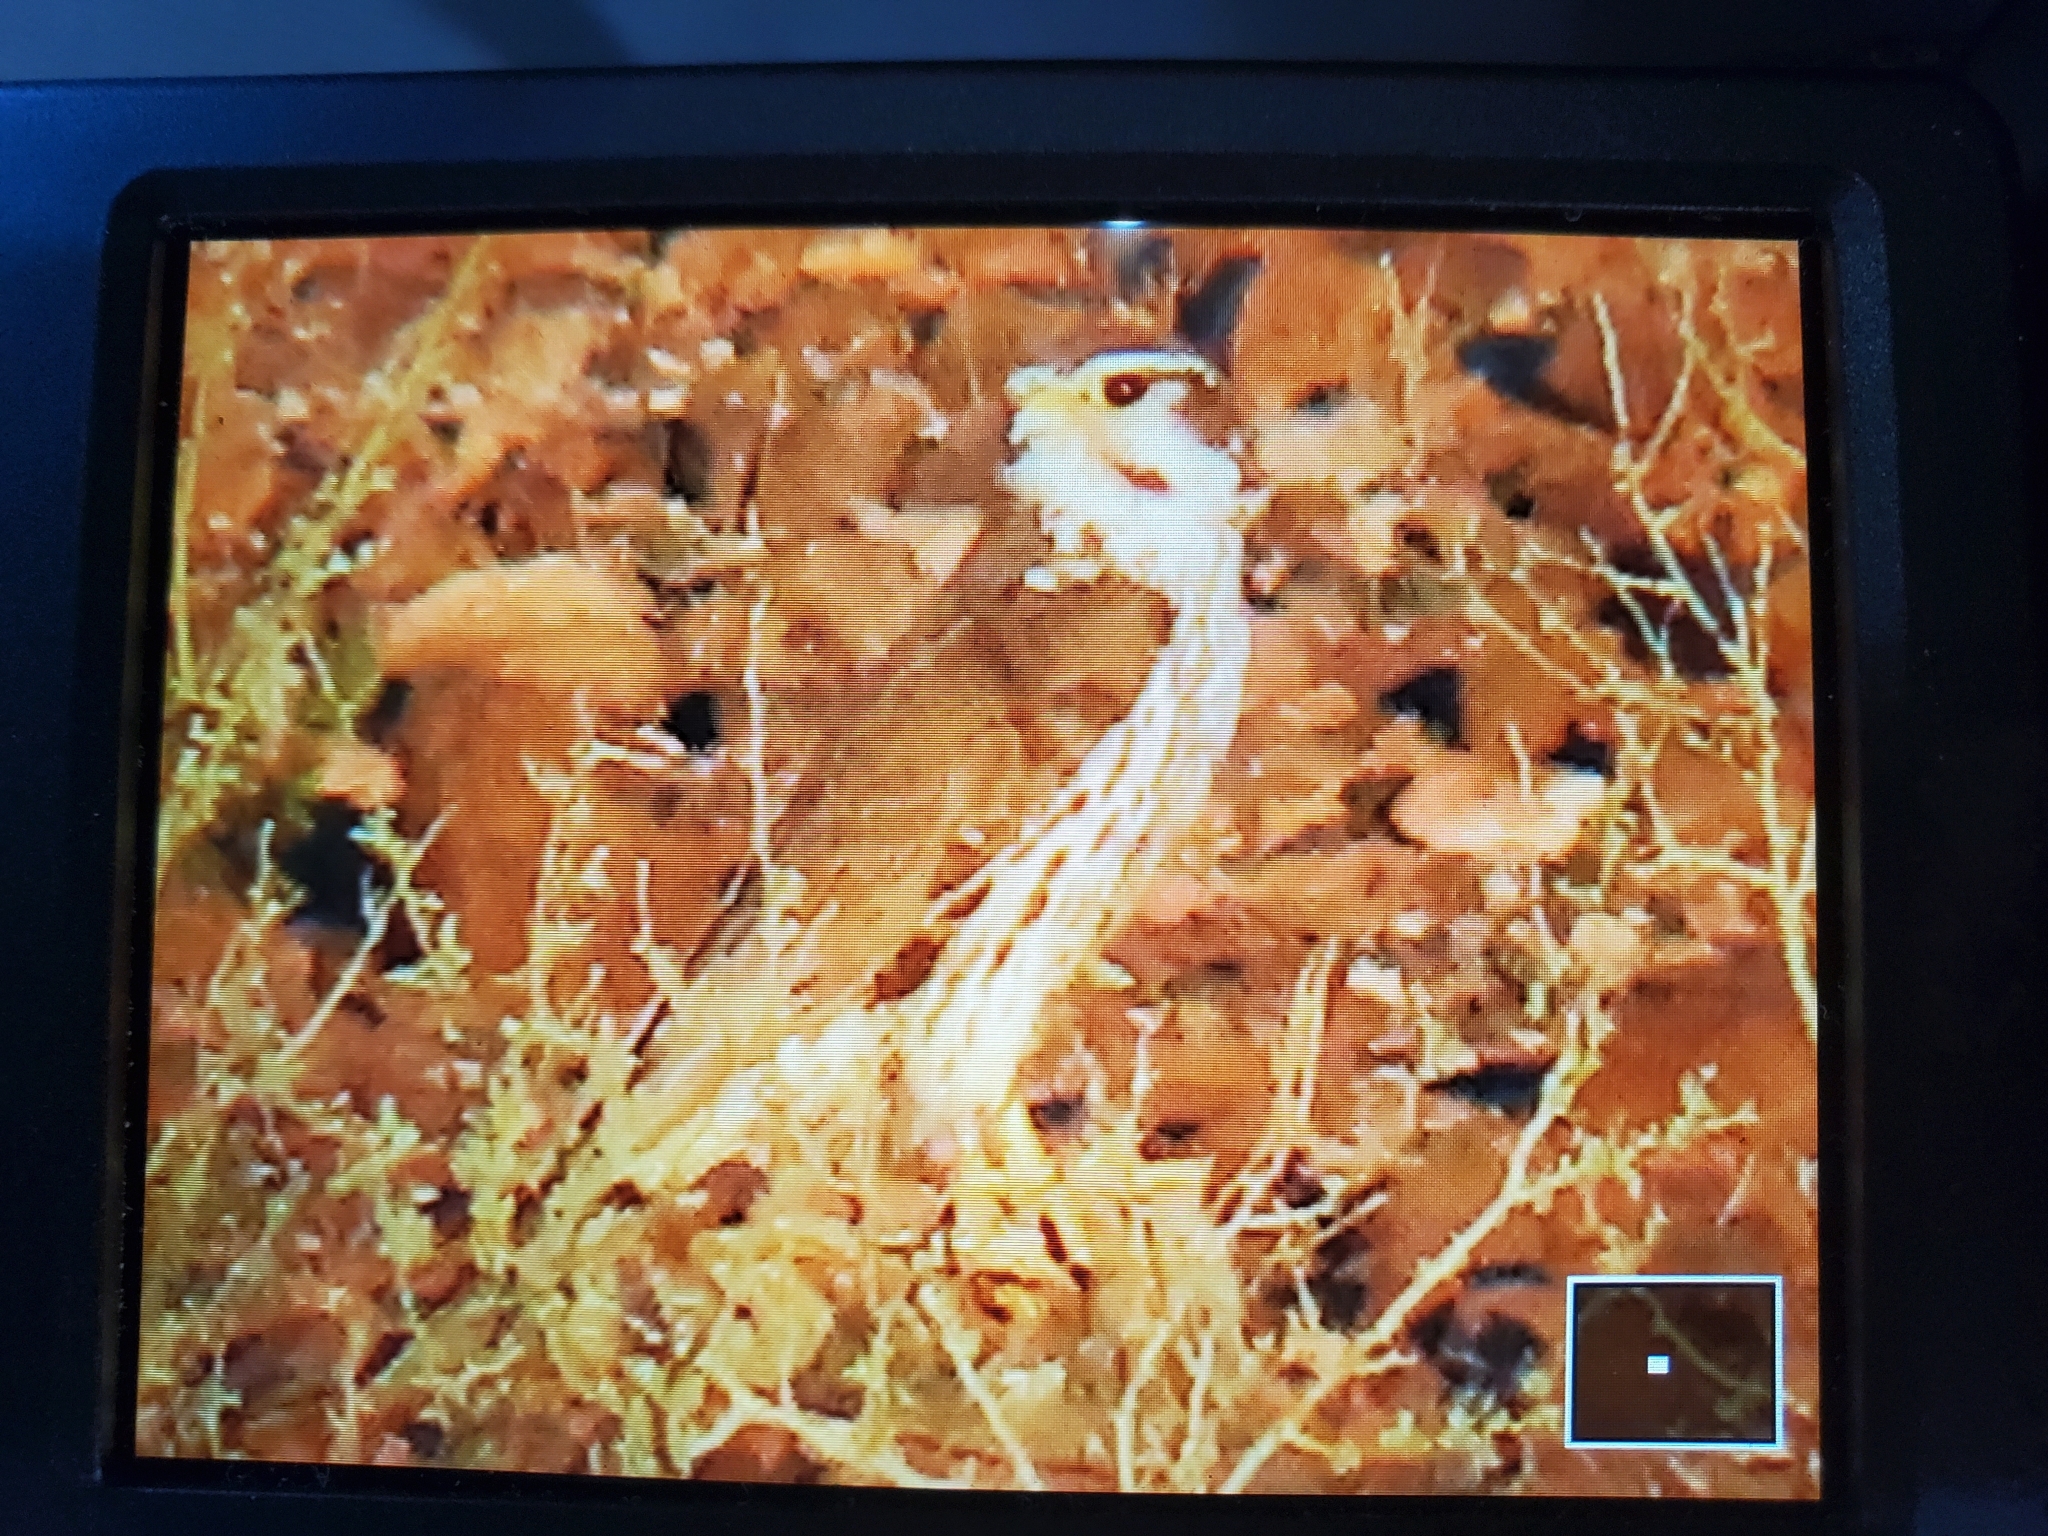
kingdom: Animalia
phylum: Chordata
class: Aves
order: Falconiformes
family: Falconidae
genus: Falco
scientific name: Falco mexicanus
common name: Prairie falcon
